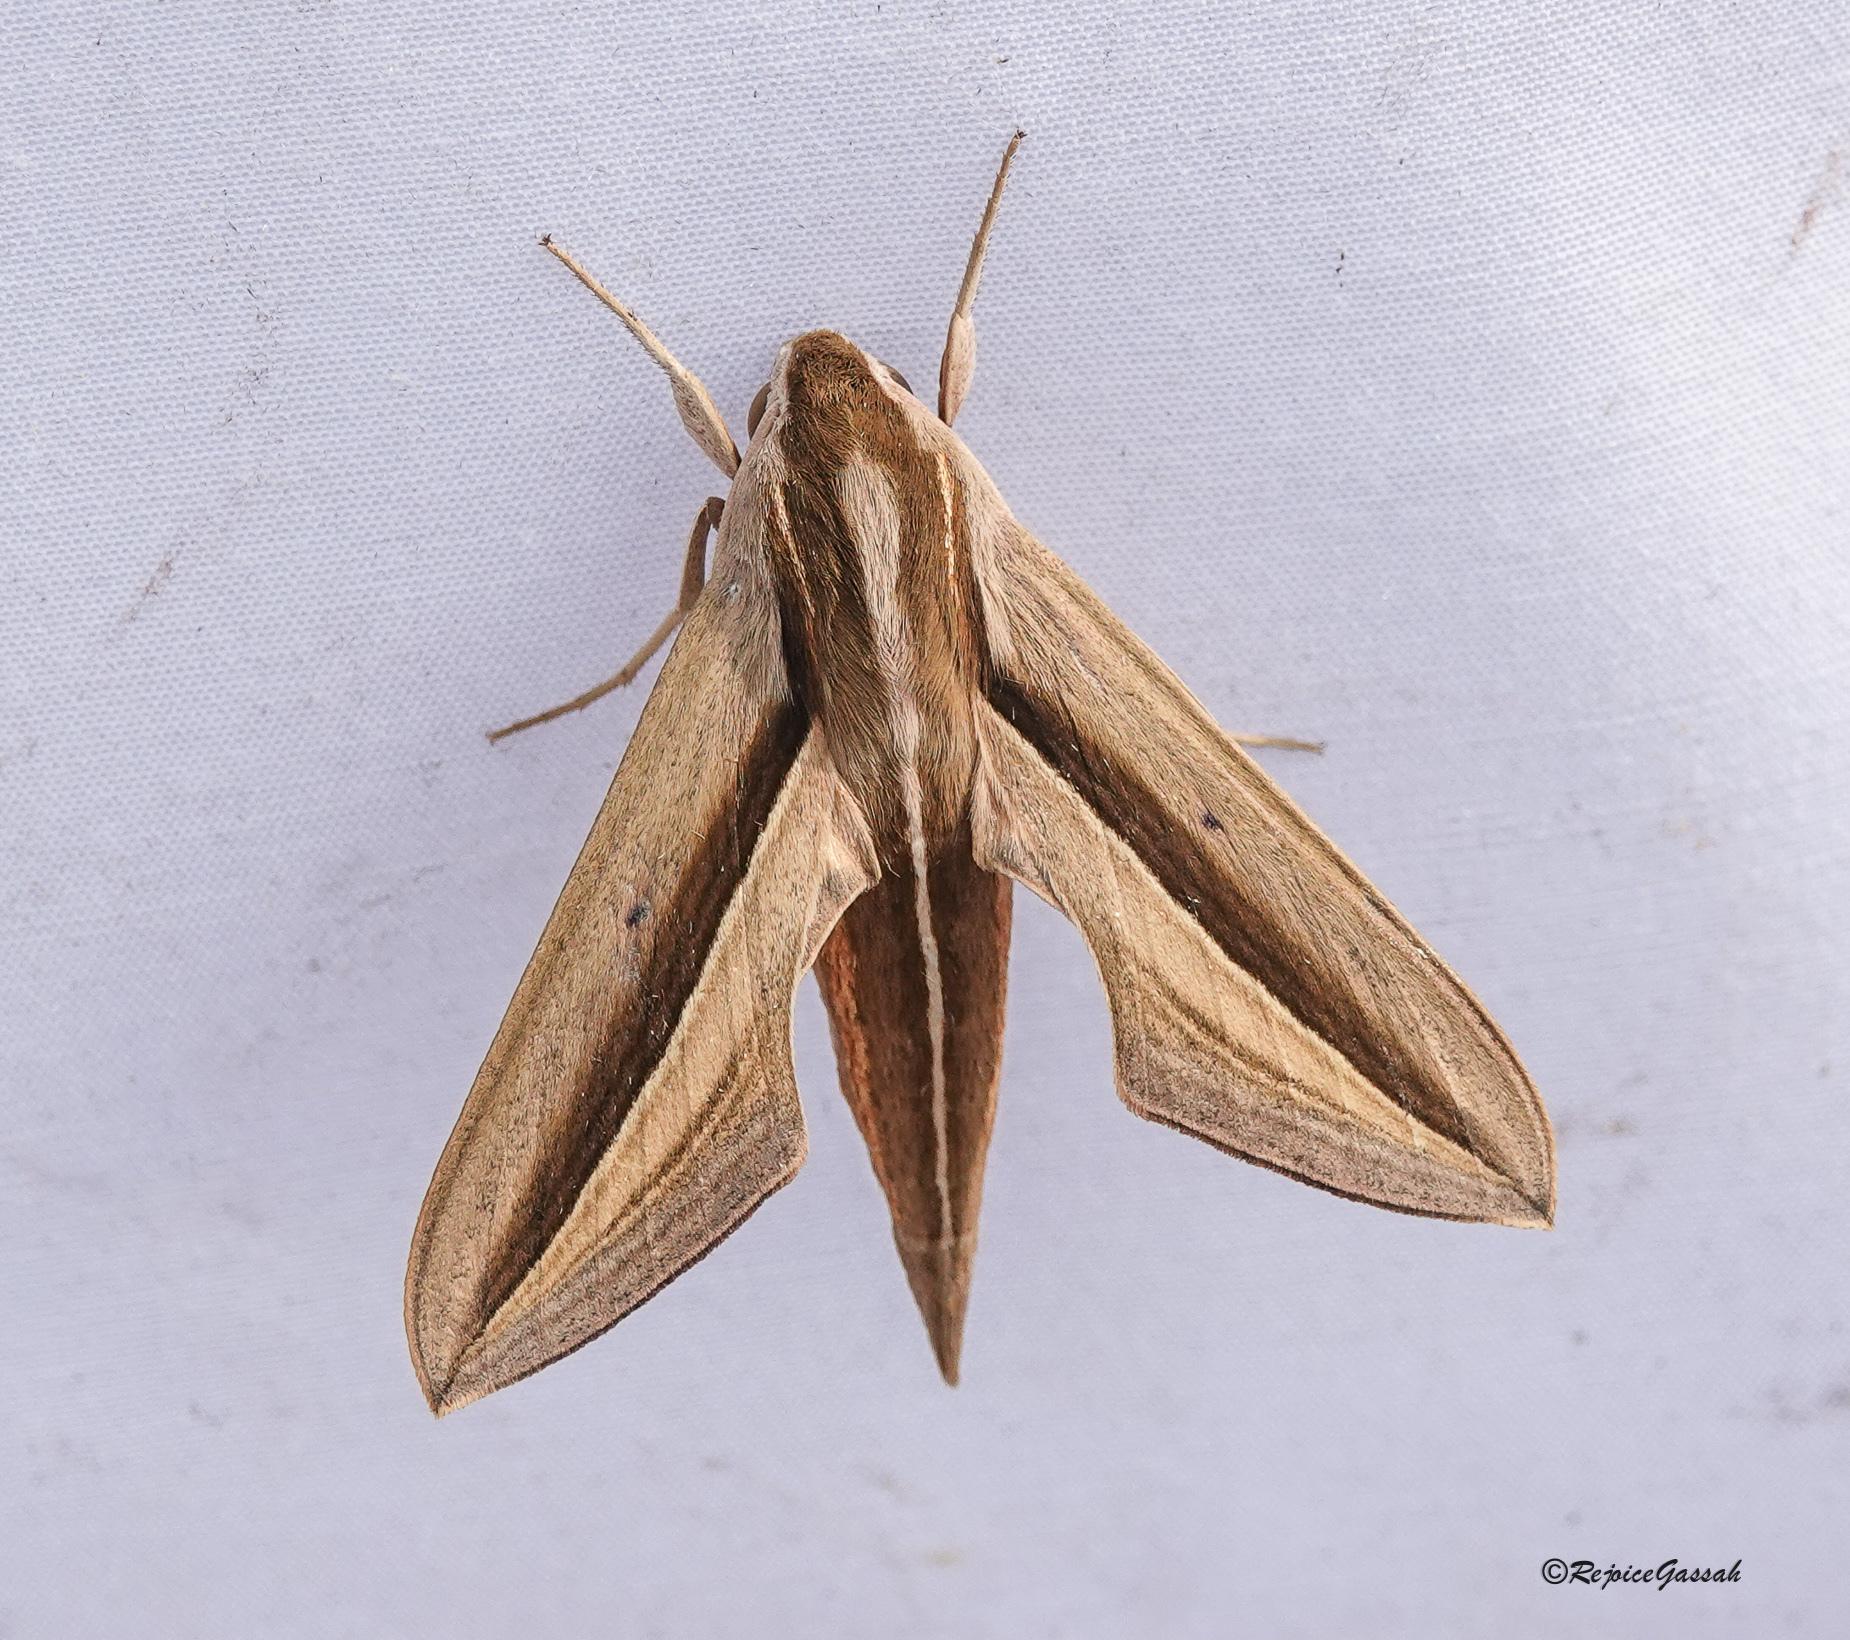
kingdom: Animalia
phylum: Arthropoda
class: Insecta
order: Lepidoptera
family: Sphingidae
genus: Theretra
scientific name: Theretra silhetensis
